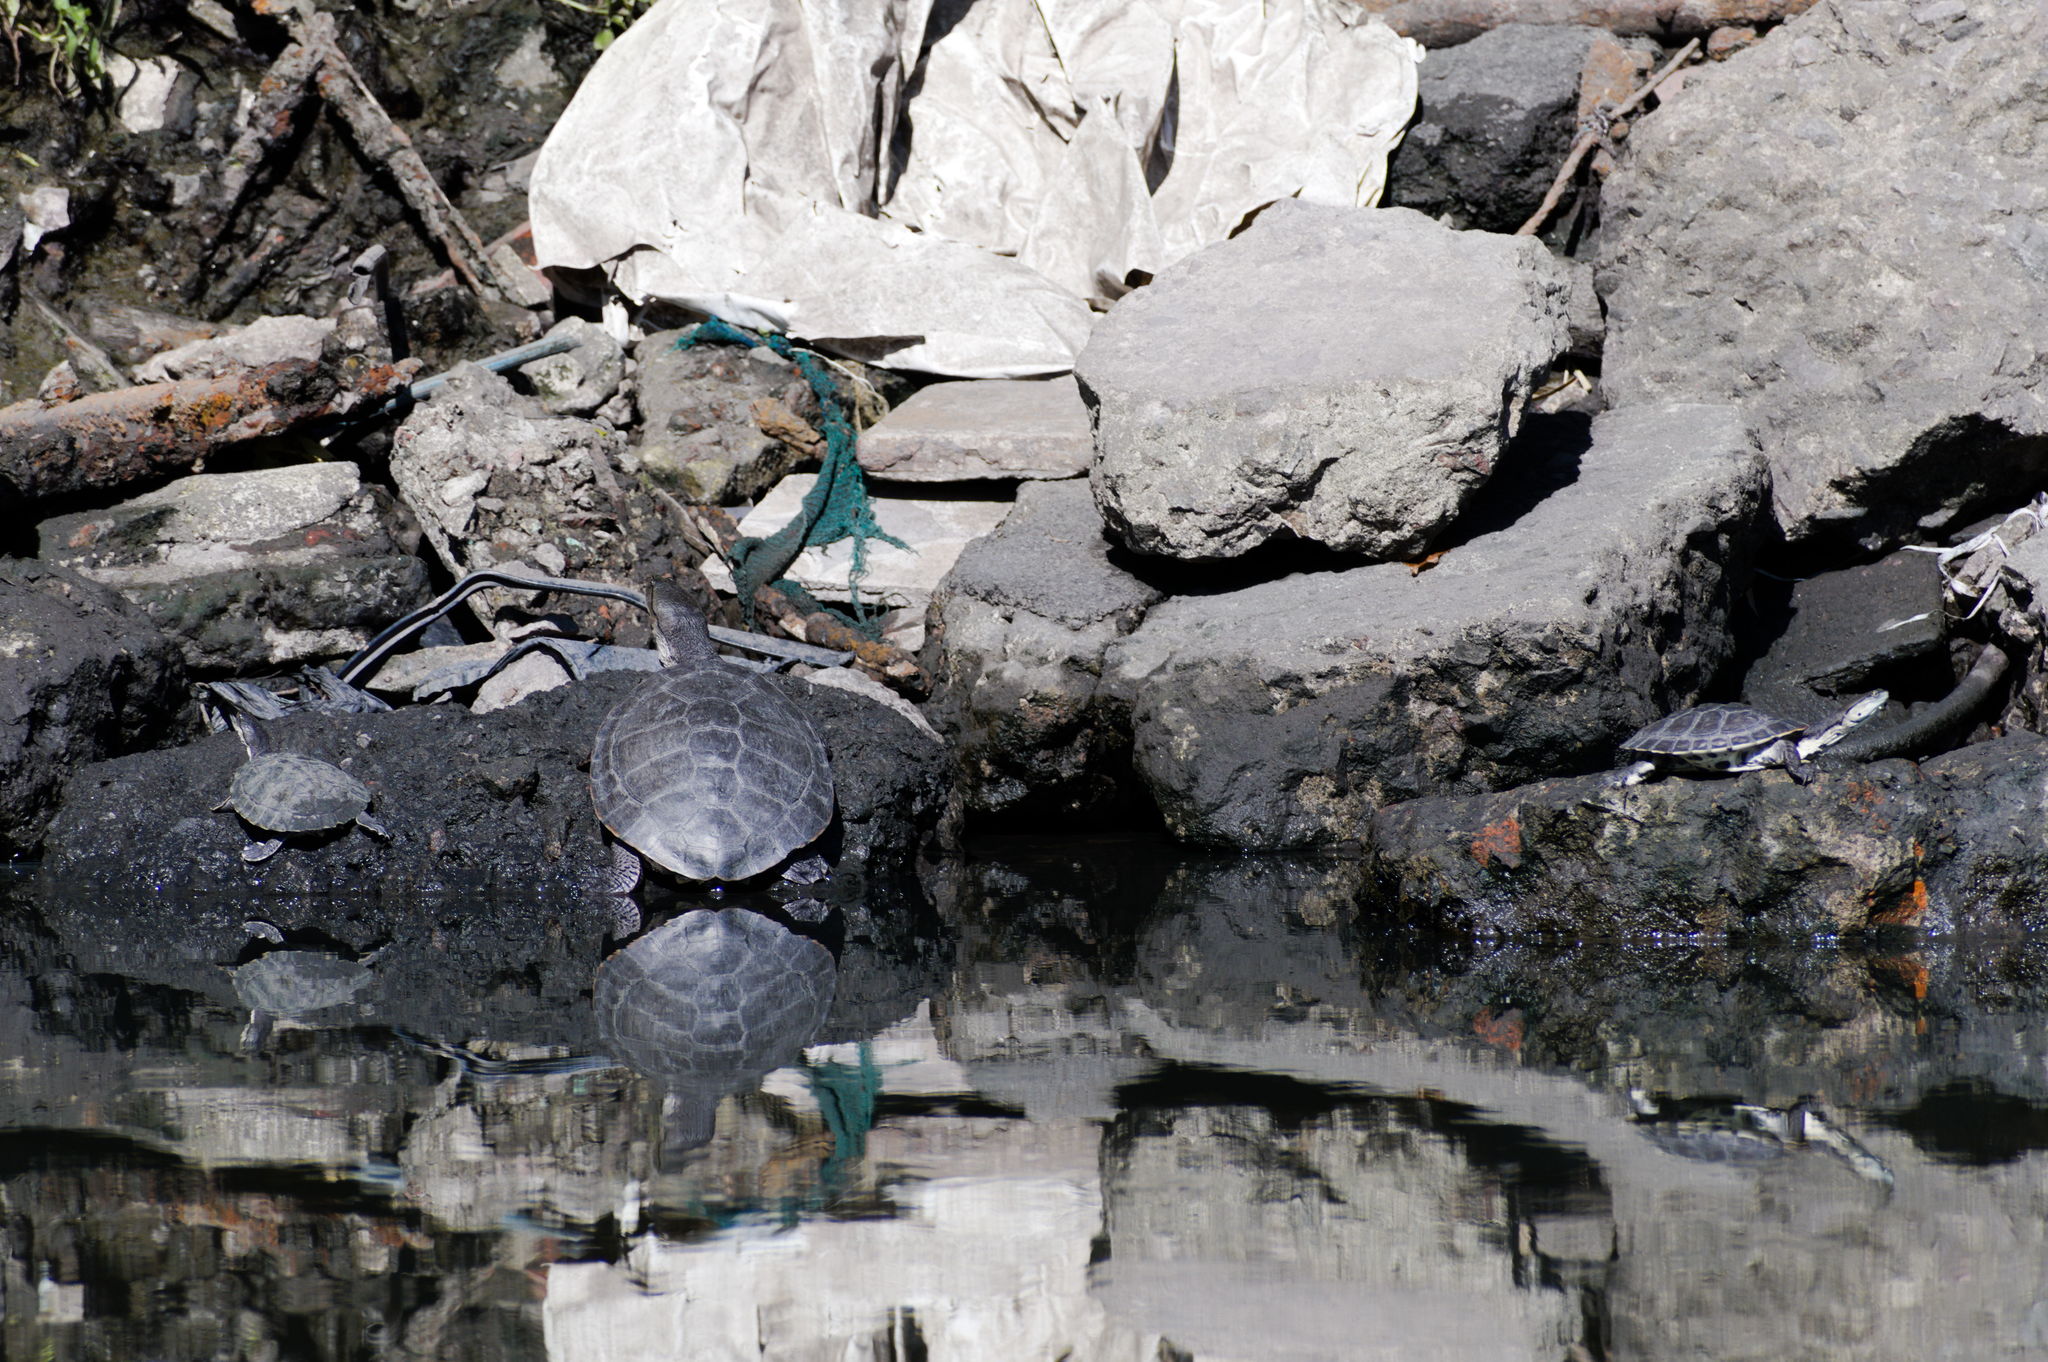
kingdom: Animalia
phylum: Chordata
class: Testudines
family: Chelidae
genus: Phrynops
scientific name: Phrynops hilarii
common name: Side-necked turtle of saint hillaire
